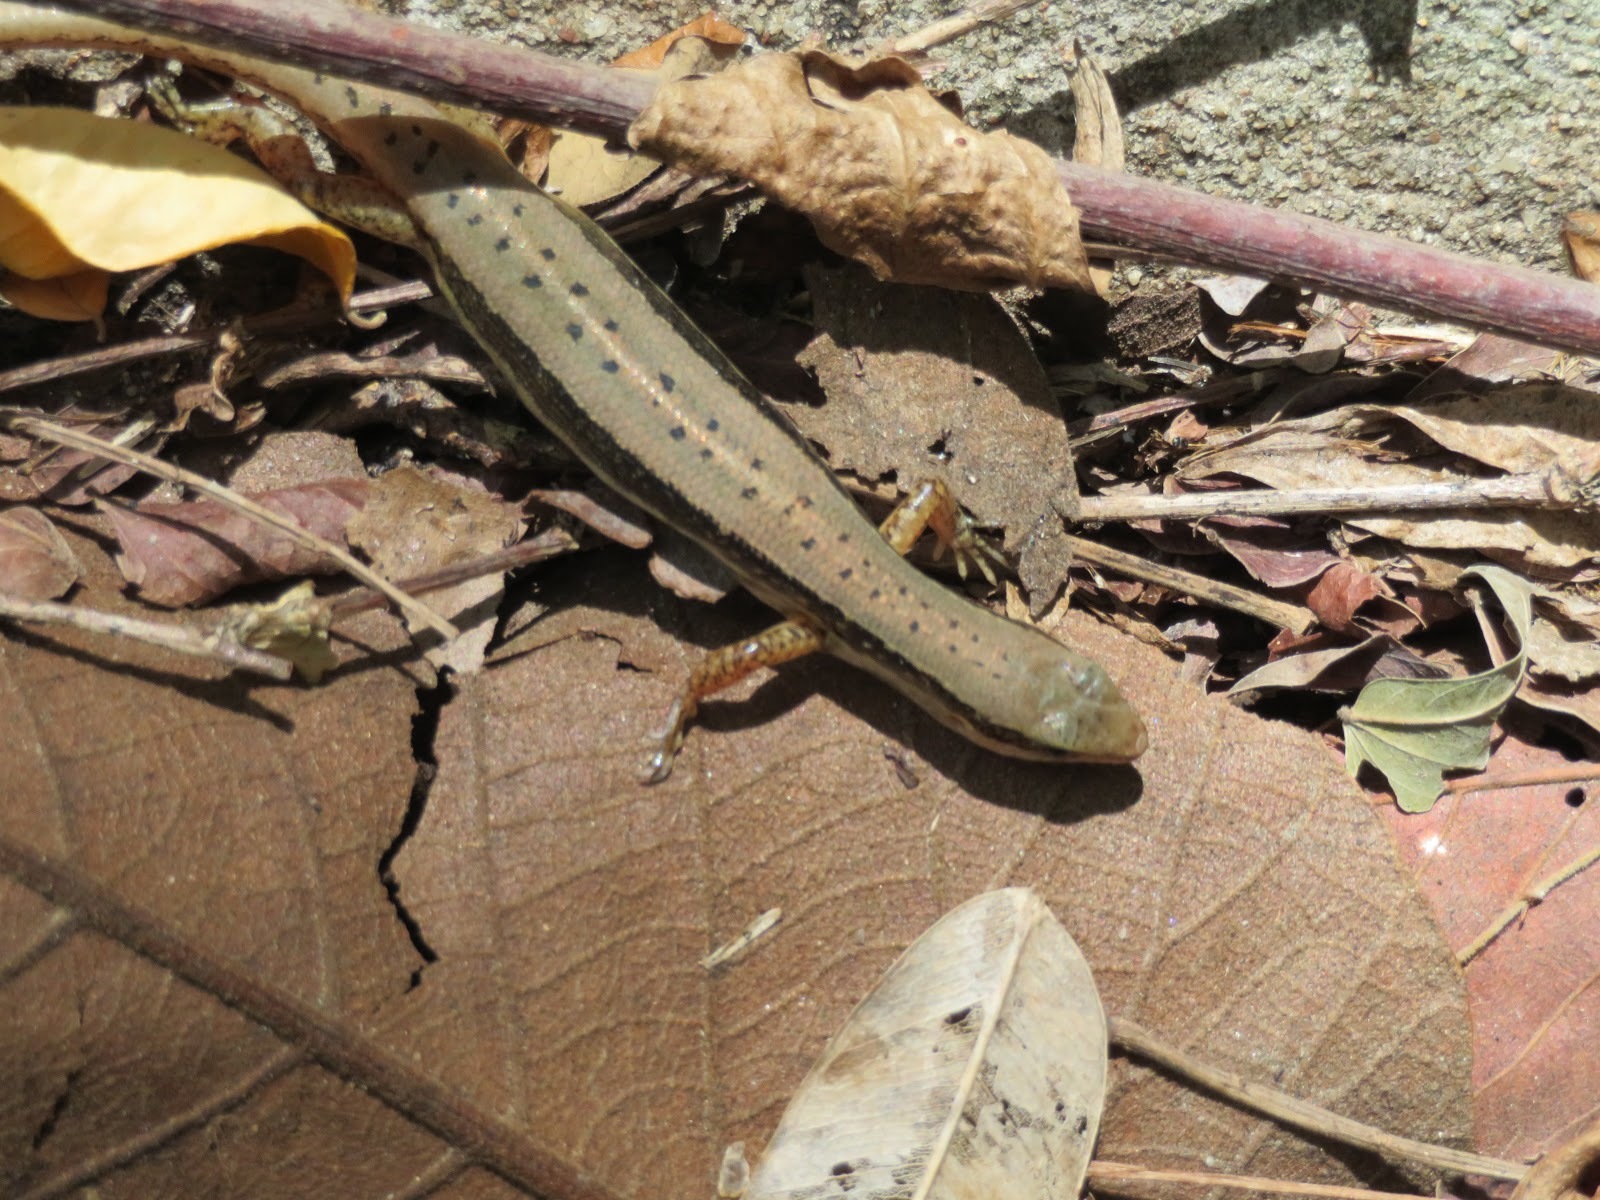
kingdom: Animalia
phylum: Chordata
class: Squamata
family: Scincidae
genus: Sphenomorphus
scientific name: Sphenomorphus maculatus
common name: Maculated forest skink
